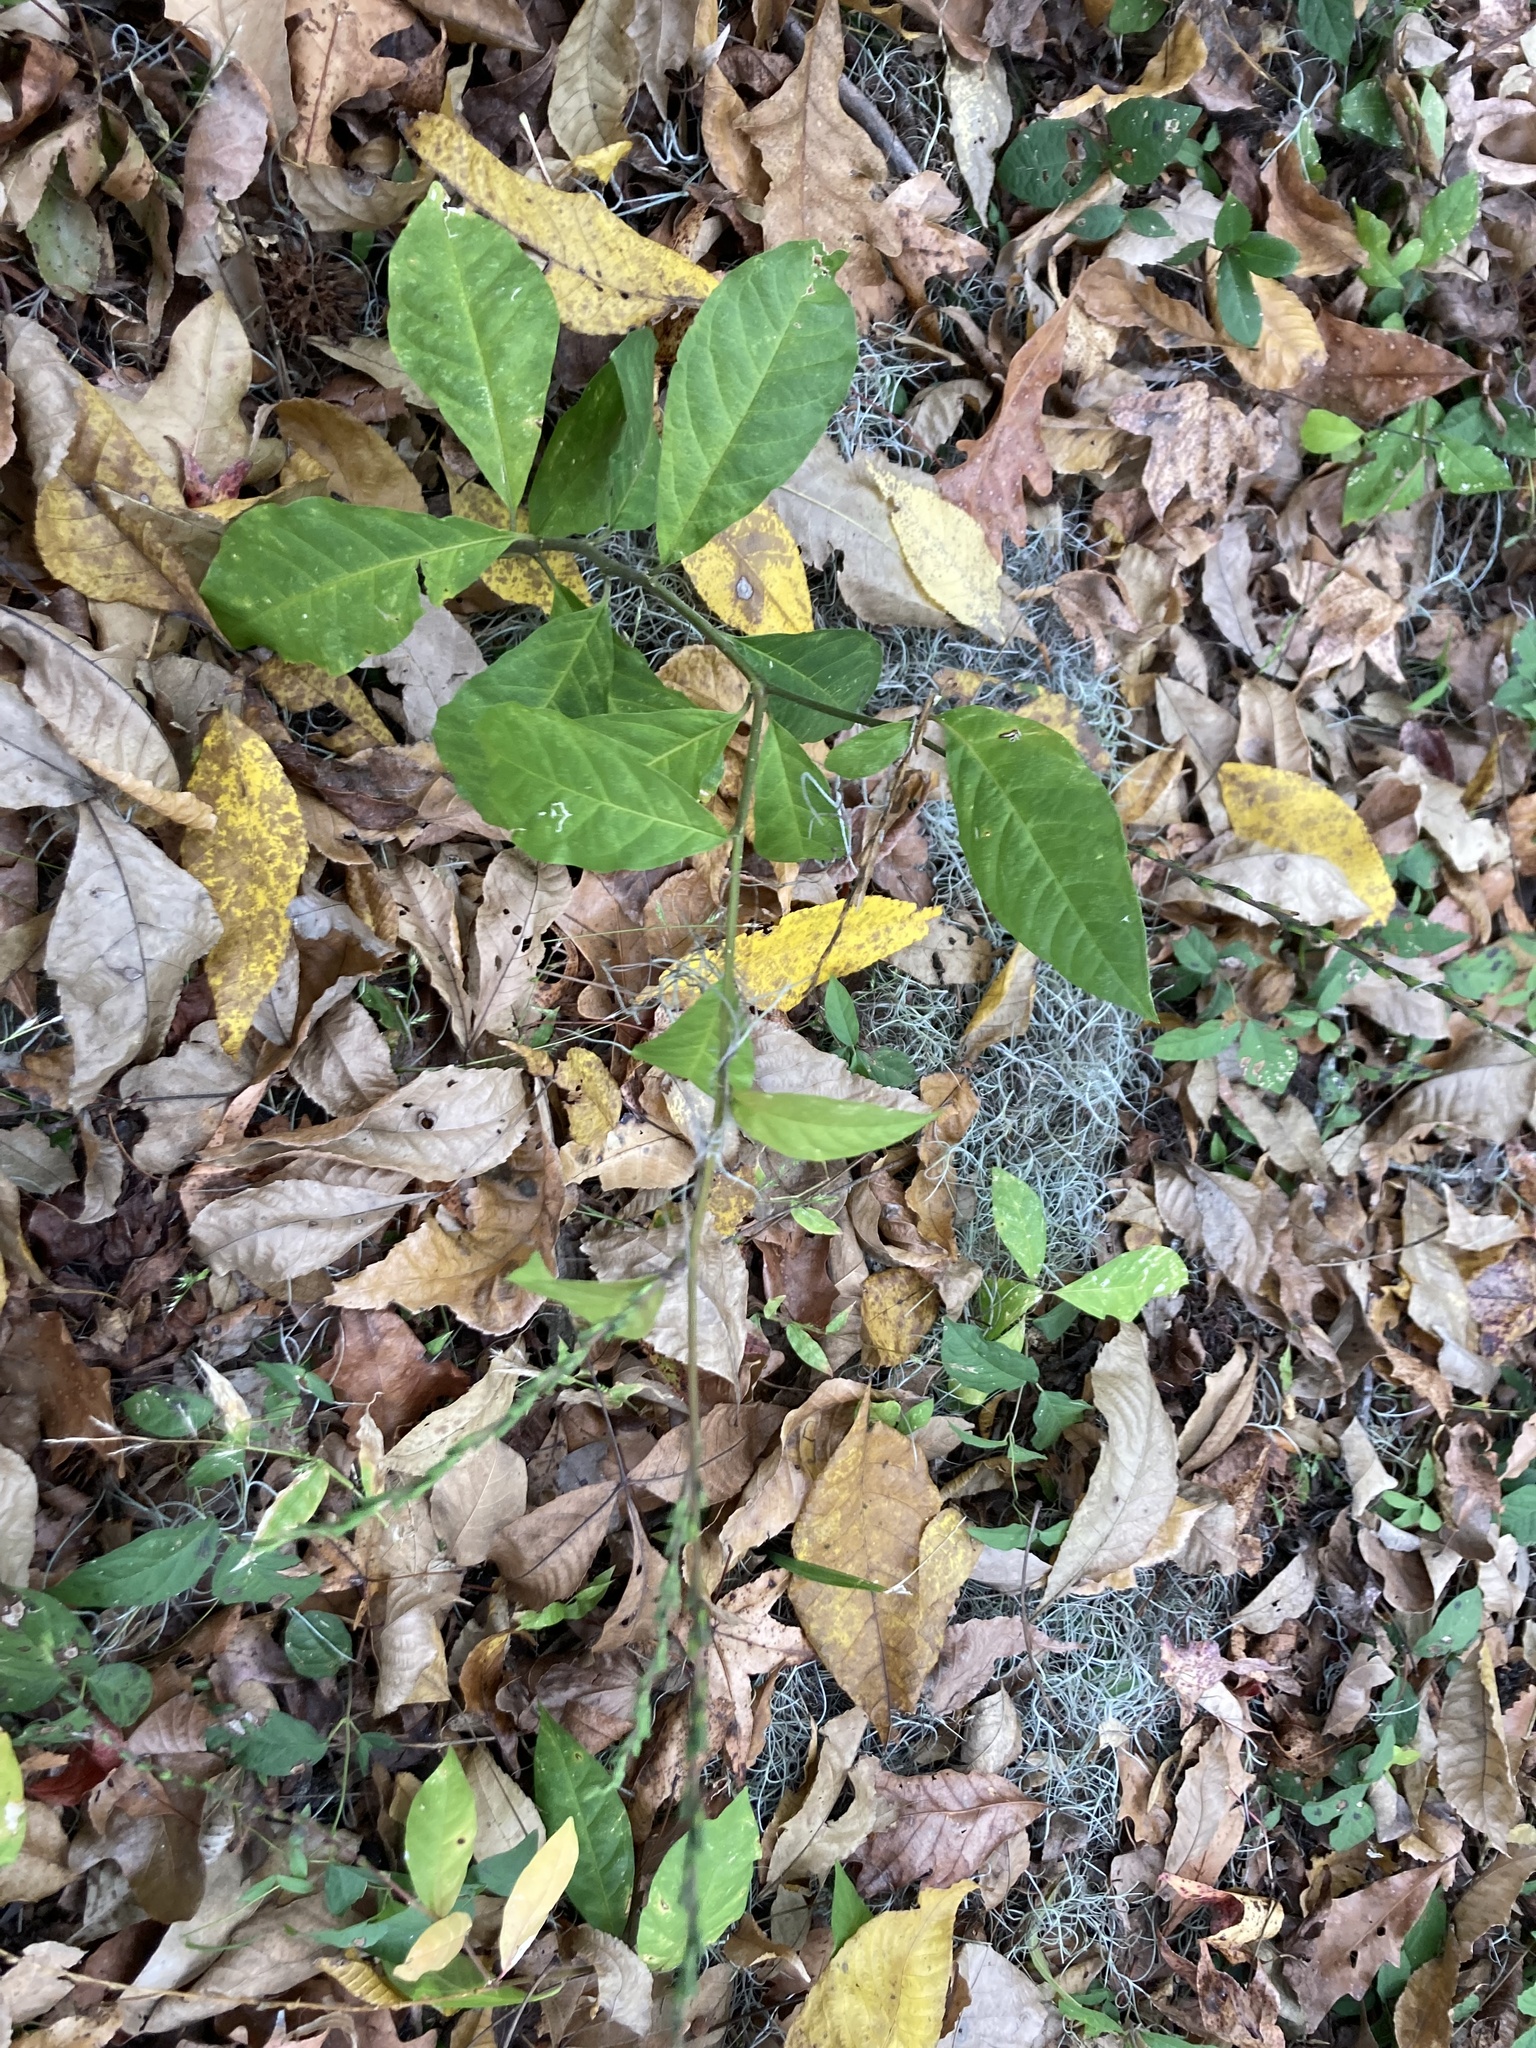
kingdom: Plantae
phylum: Tracheophyta
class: Magnoliopsida
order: Caryophyllales
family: Phytolaccaceae
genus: Petiveria
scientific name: Petiveria alliacea
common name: Garlicweed
